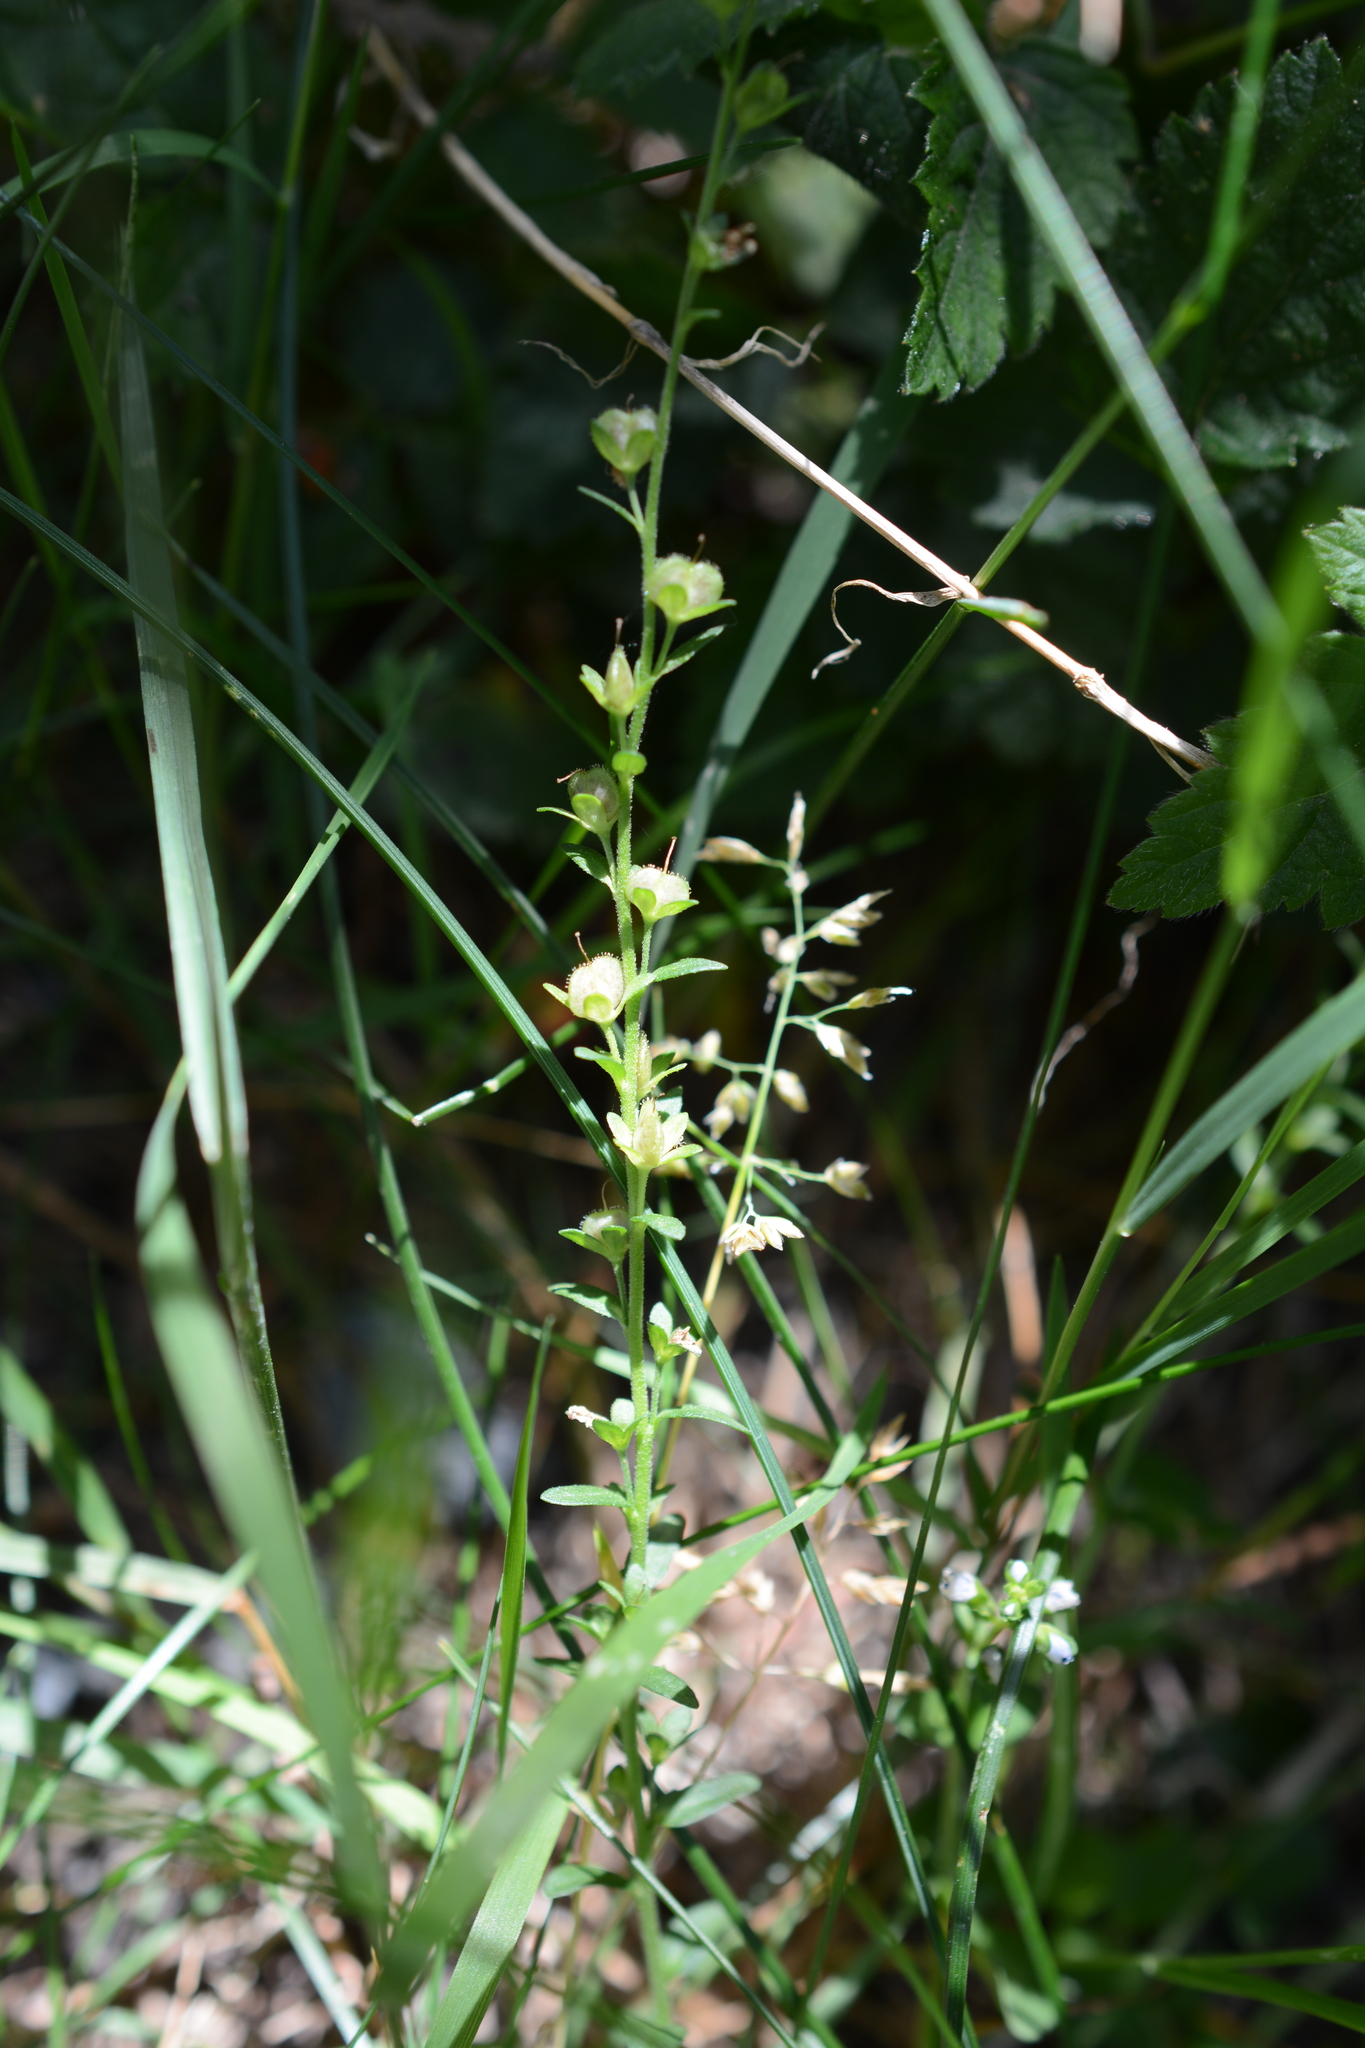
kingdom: Plantae
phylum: Tracheophyta
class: Magnoliopsida
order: Lamiales
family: Plantaginaceae
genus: Veronica
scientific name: Veronica serpyllifolia
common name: Thyme-leaved speedwell
